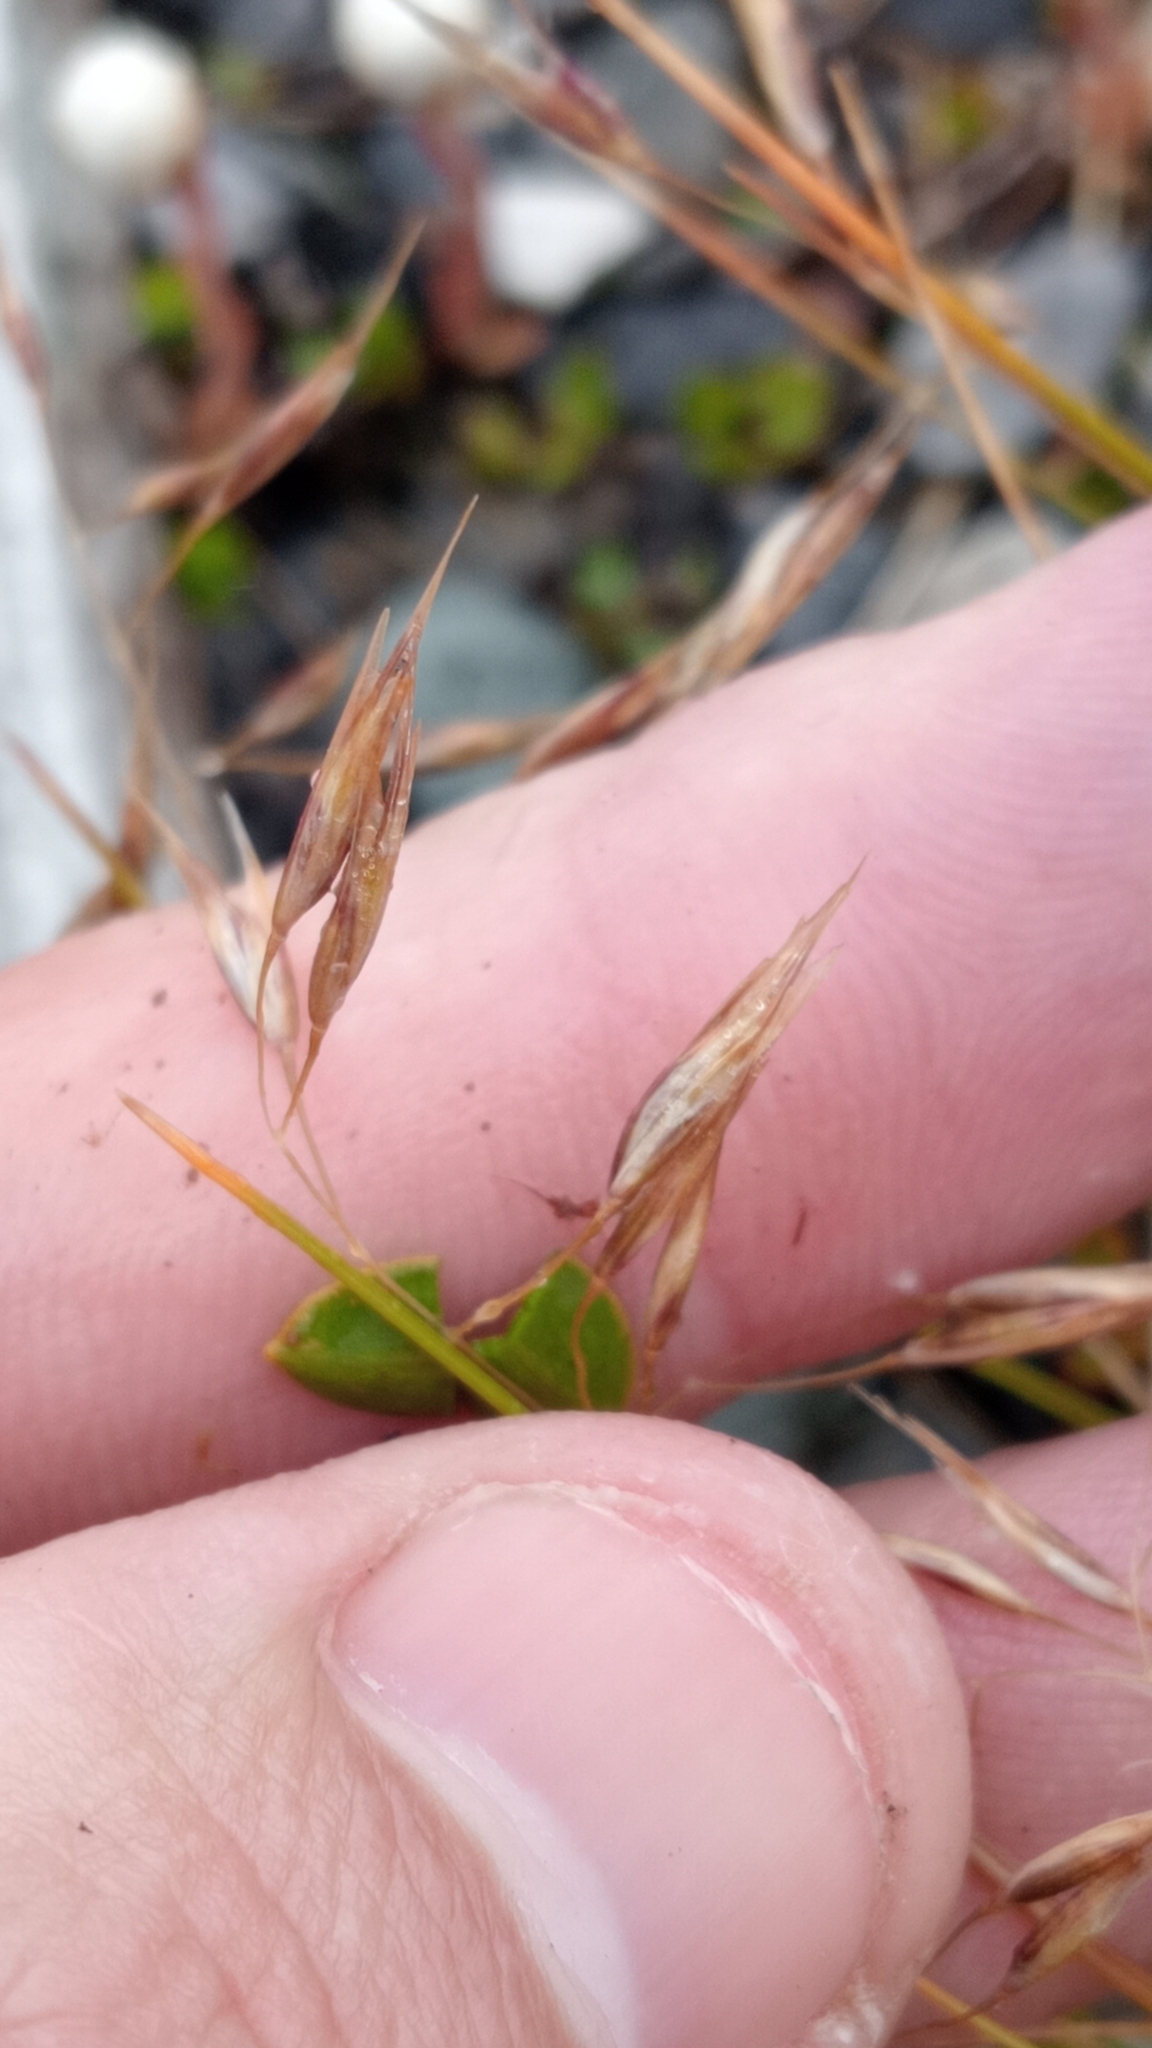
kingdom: Plantae
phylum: Tracheophyta
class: Liliopsida
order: Poales
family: Poaceae
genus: Rytidosperma
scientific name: Rytidosperma setifolium
